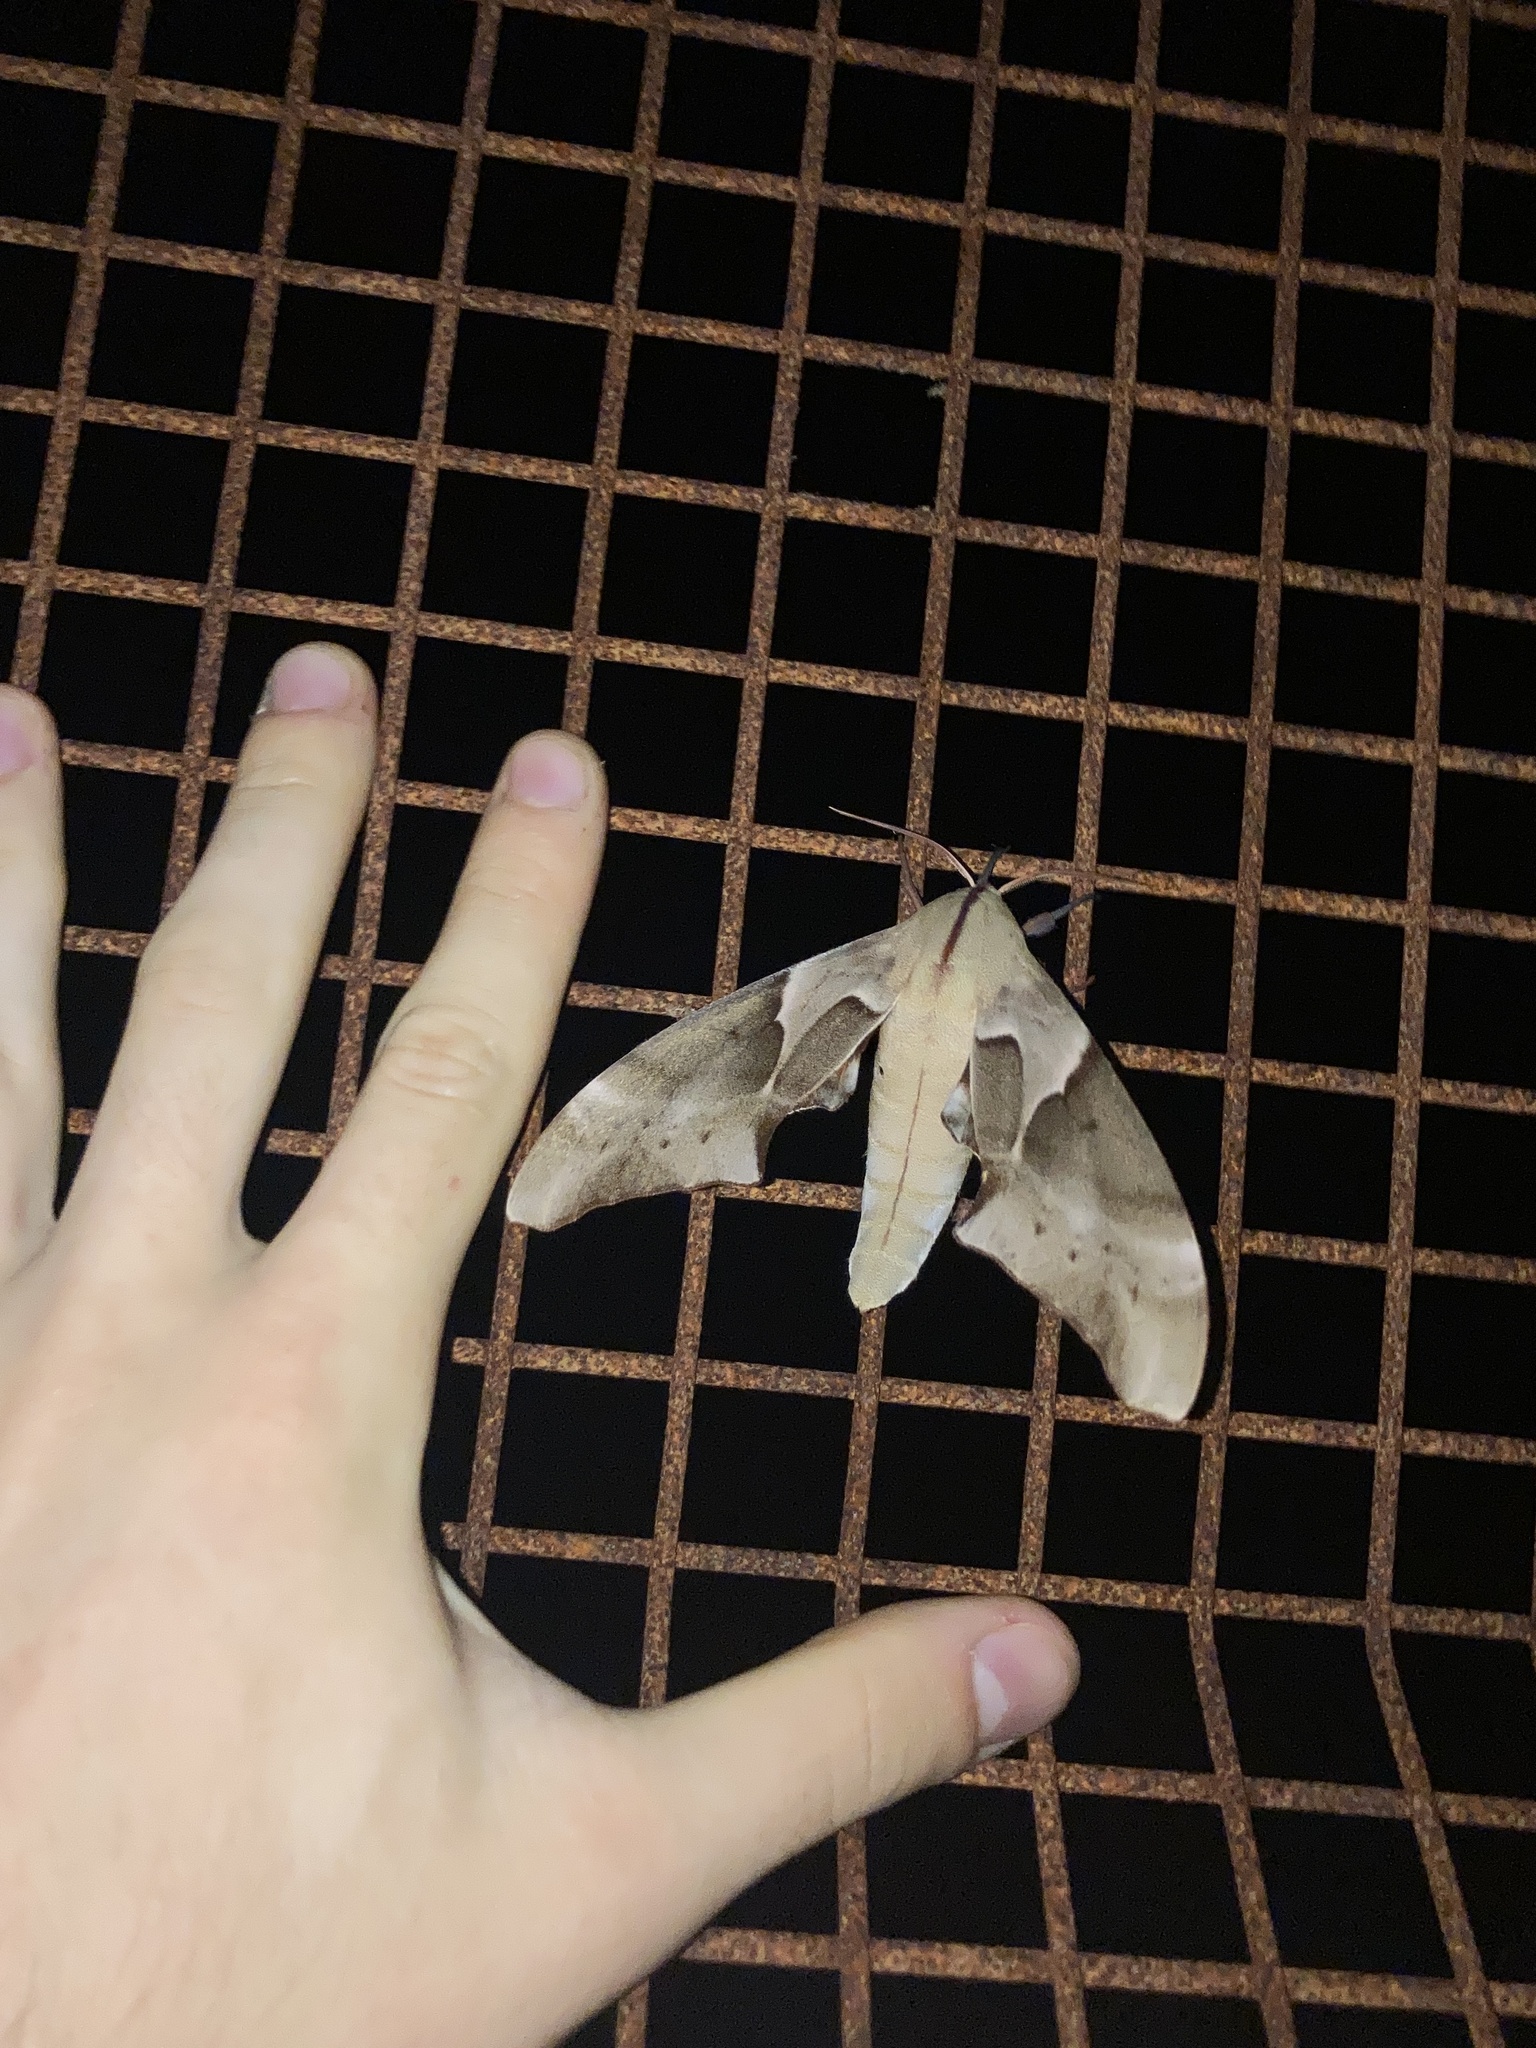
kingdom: Animalia
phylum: Arthropoda
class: Insecta
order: Lepidoptera
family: Sphingidae
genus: Coequosa
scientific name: Coequosa australasiae
